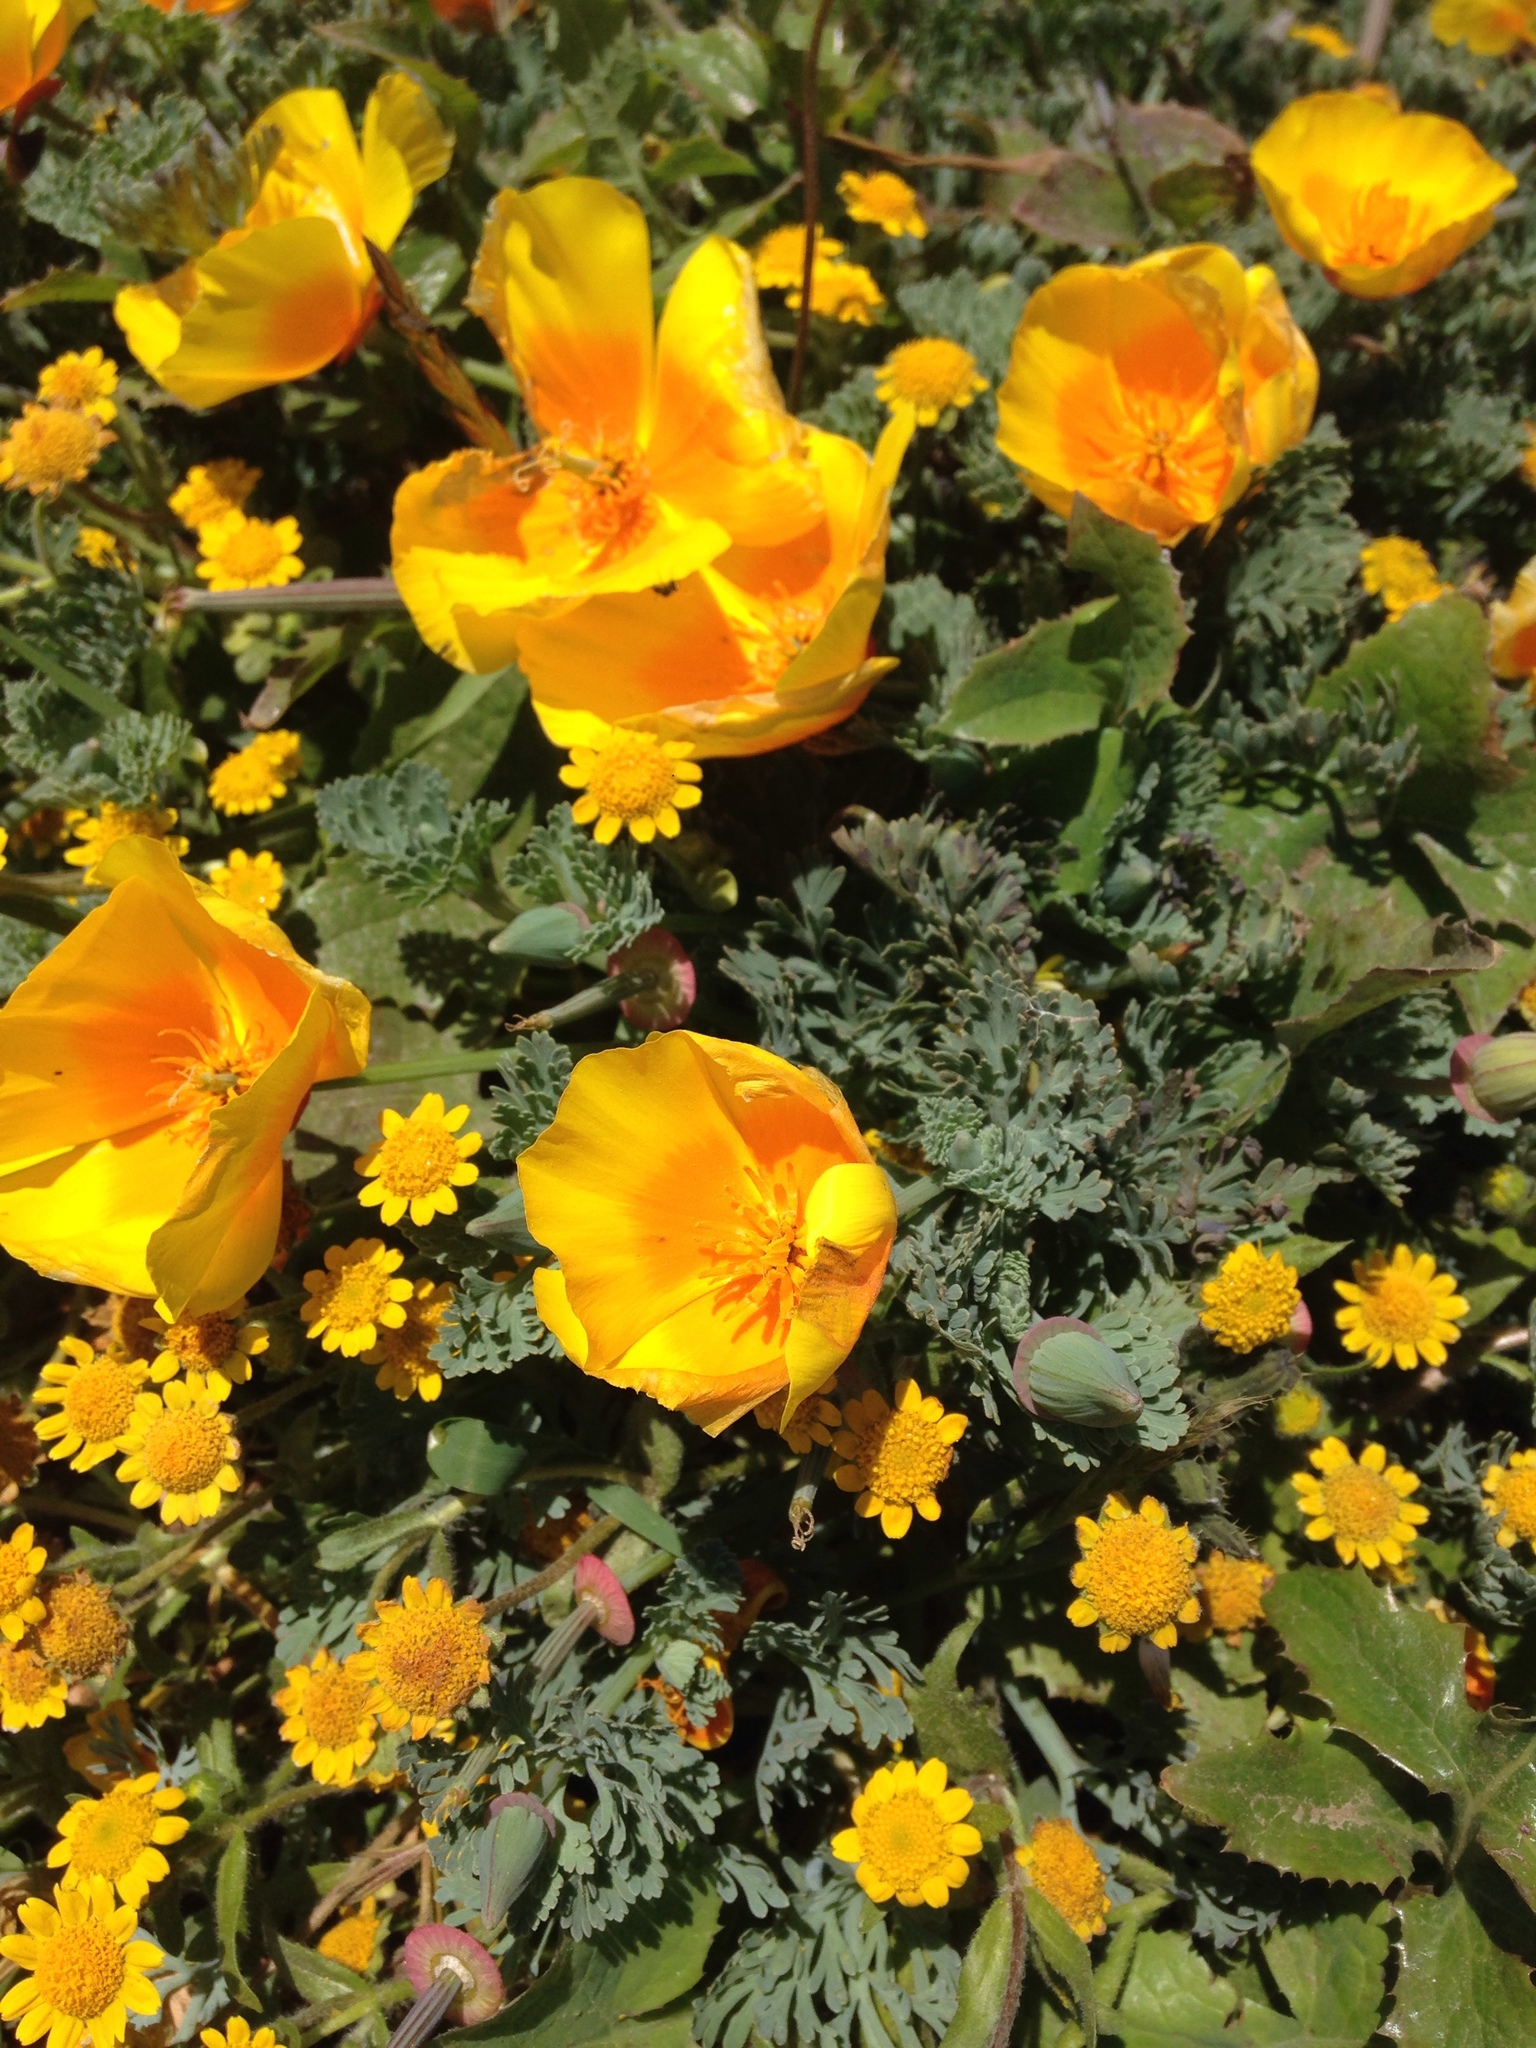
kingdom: Plantae
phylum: Tracheophyta
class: Magnoliopsida
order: Ranunculales
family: Papaveraceae
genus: Eschscholzia
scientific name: Eschscholzia californica
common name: California poppy
